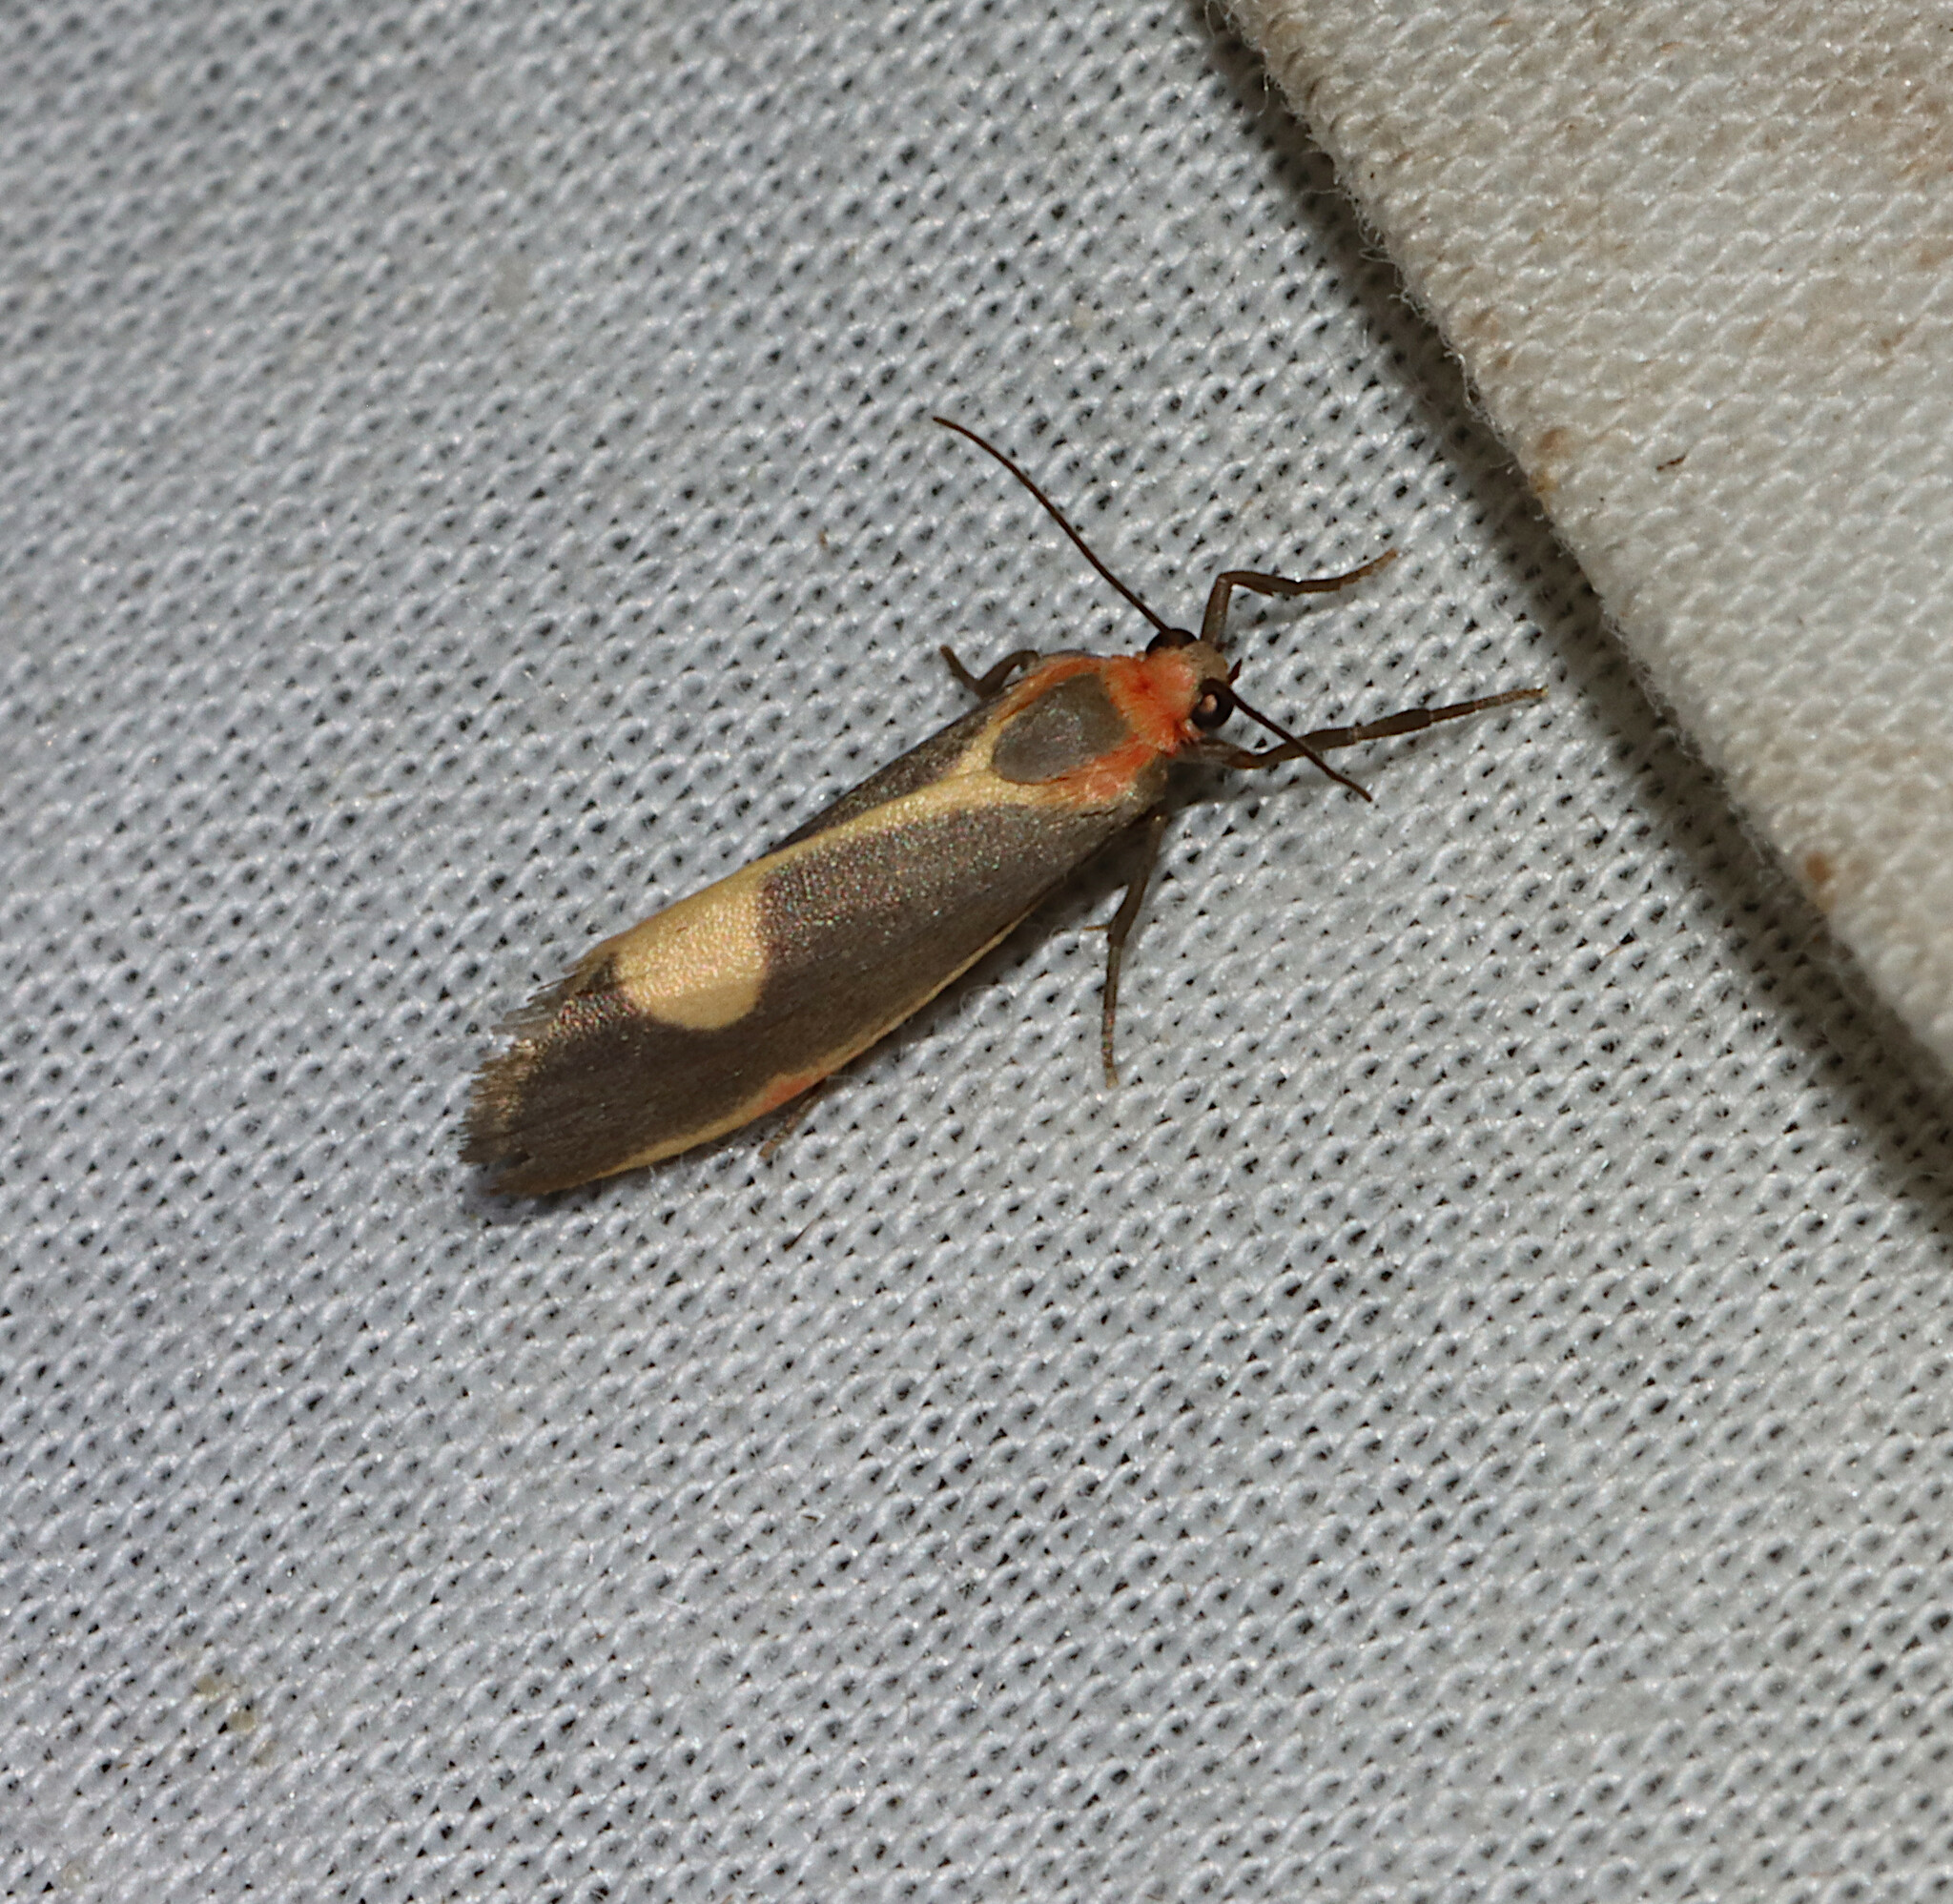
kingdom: Animalia
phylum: Arthropoda
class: Insecta
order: Lepidoptera
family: Erebidae
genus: Cisthene
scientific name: Cisthene packardii
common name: Packard's lichen moth
